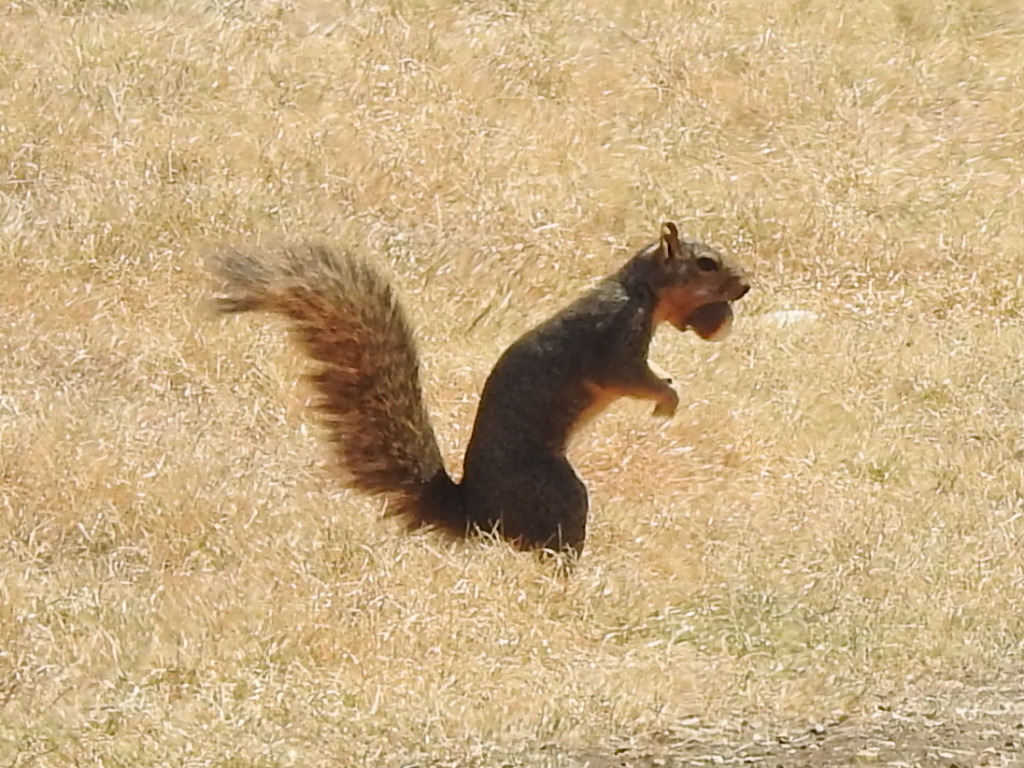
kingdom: Animalia
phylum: Chordata
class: Mammalia
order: Rodentia
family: Sciuridae
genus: Sciurus
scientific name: Sciurus niger
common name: Fox squirrel
